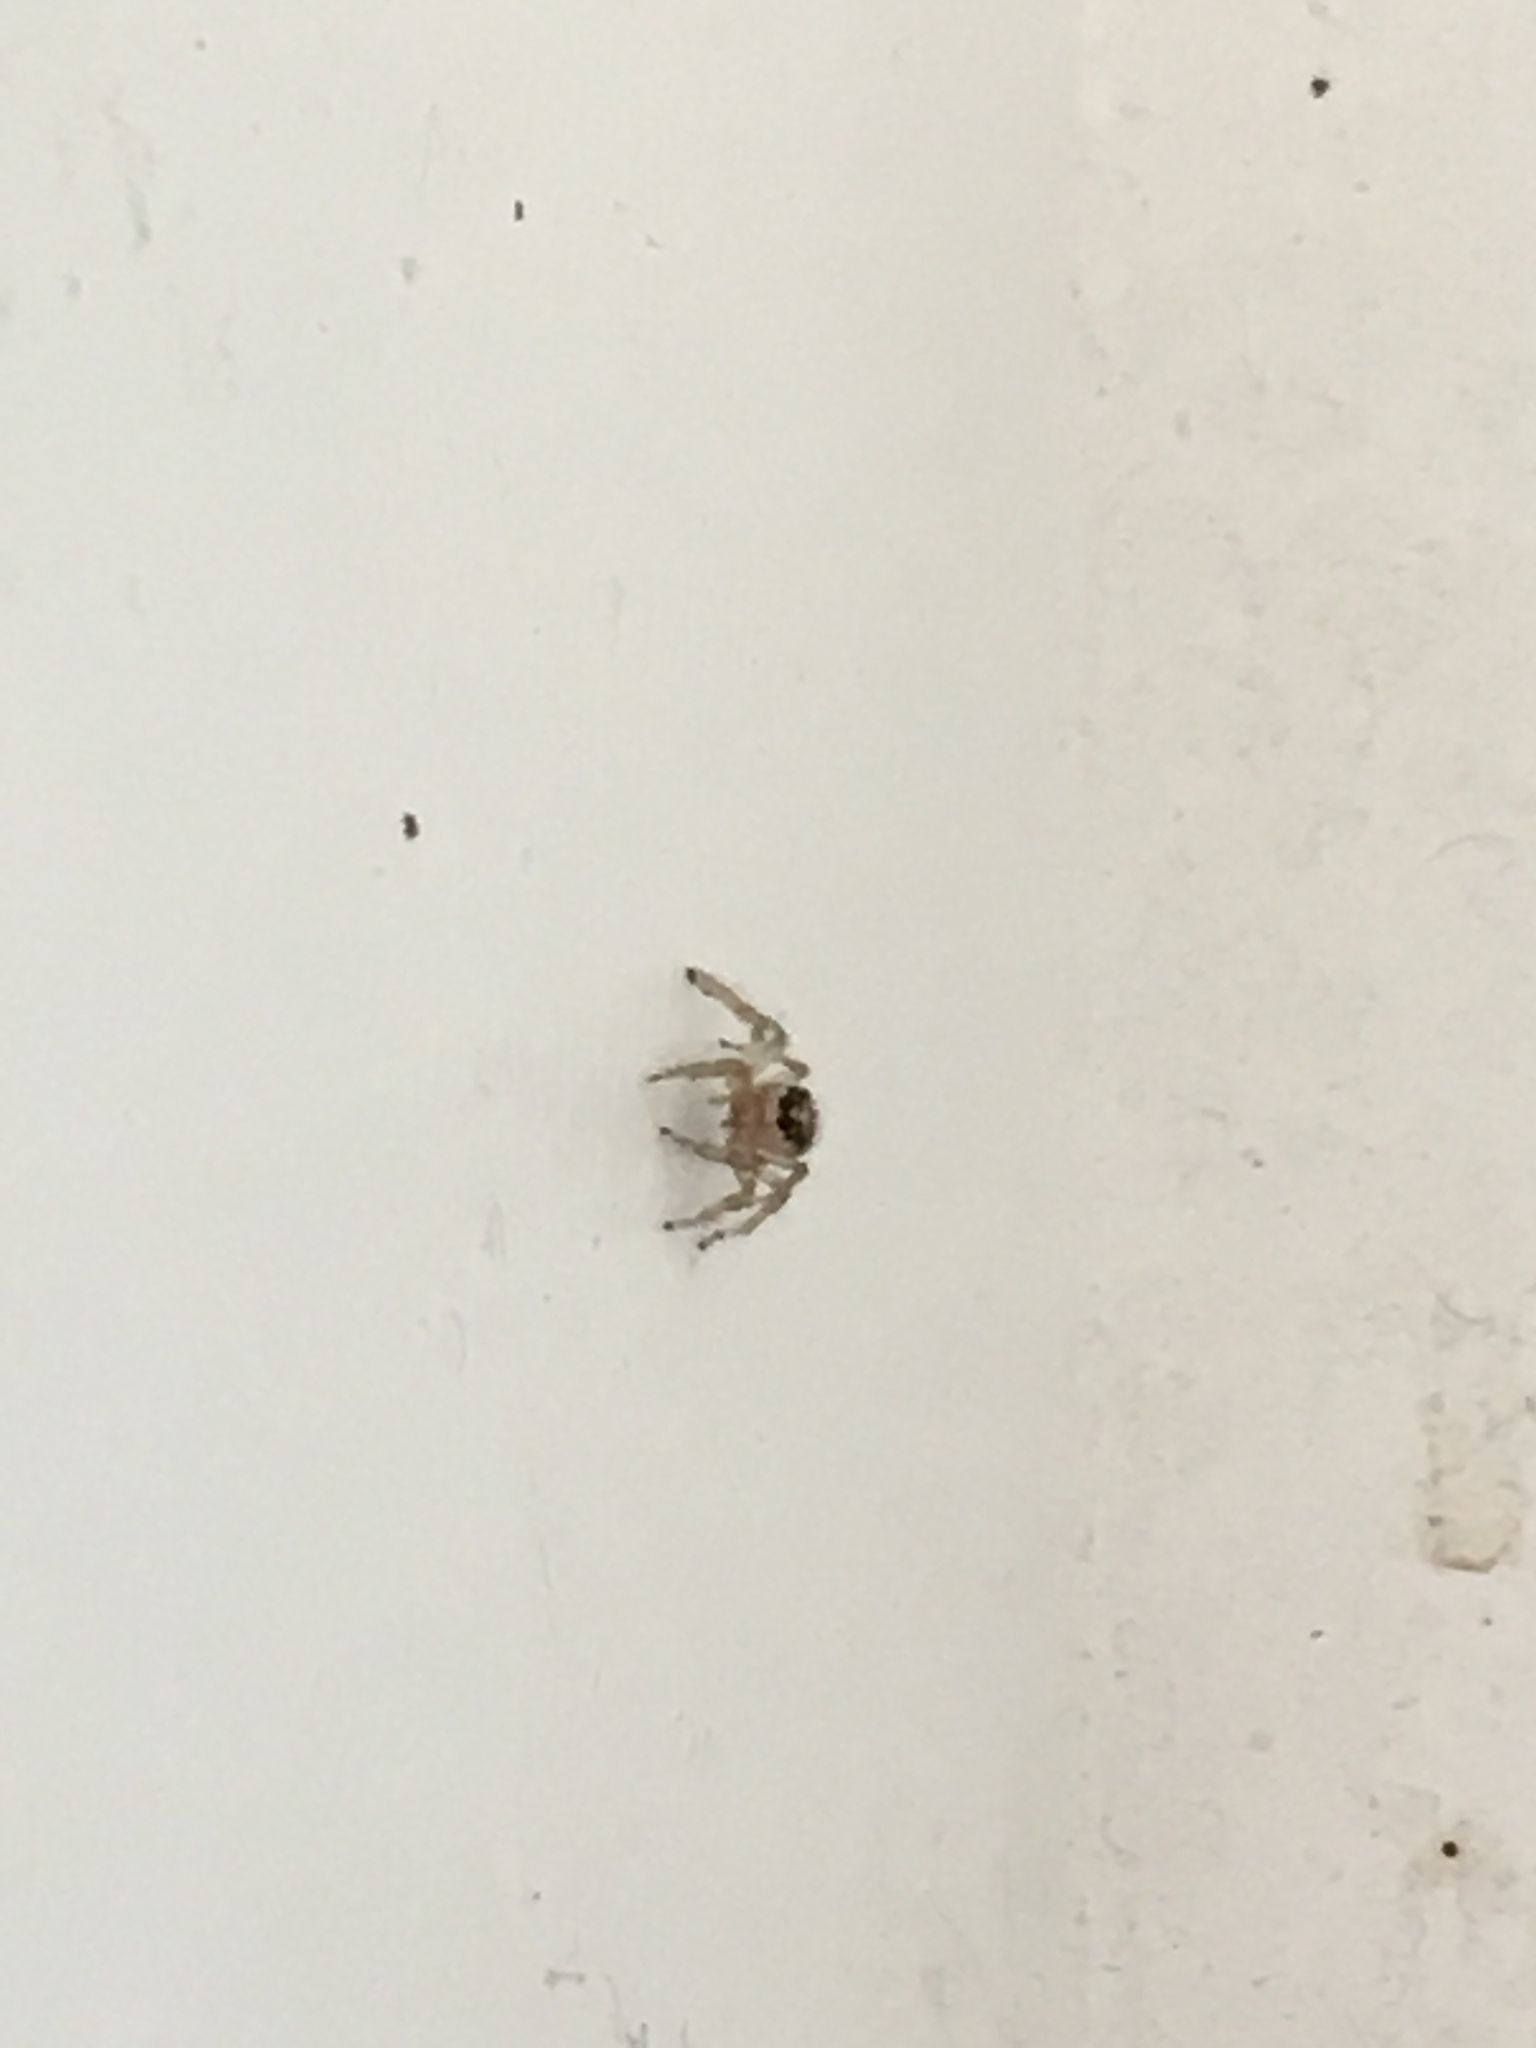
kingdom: Animalia
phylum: Arthropoda
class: Arachnida
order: Araneae
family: Salticidae
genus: Colonus
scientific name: Colonus hesperus
